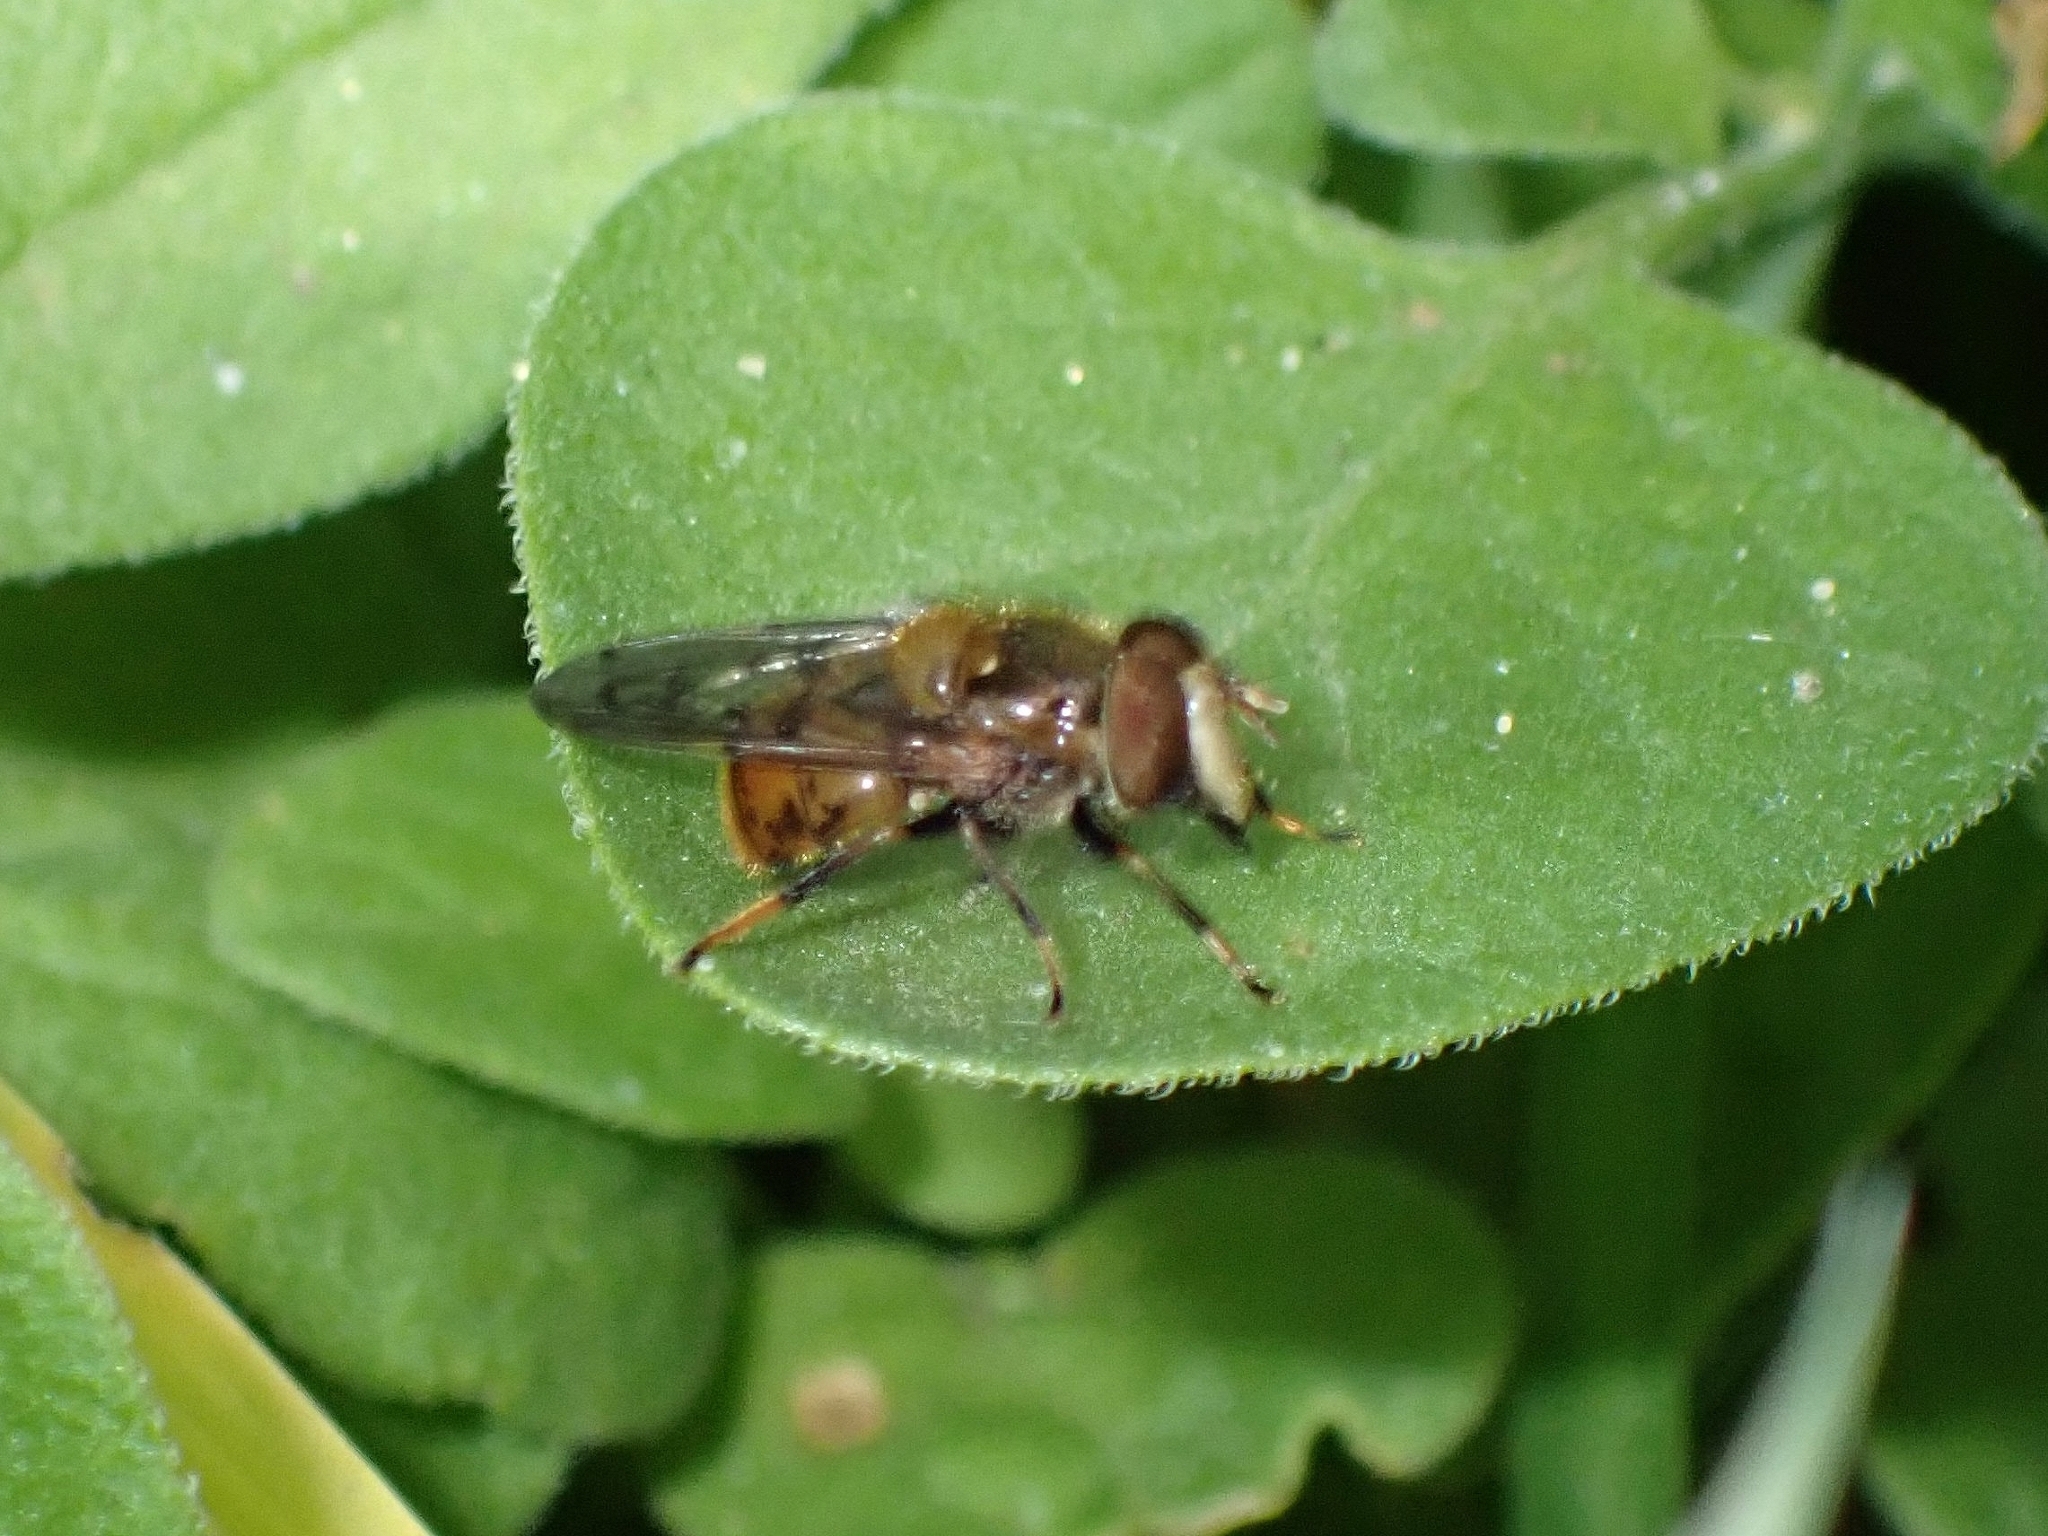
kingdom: Animalia
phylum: Arthropoda
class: Insecta
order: Diptera
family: Syrphidae
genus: Copestylum
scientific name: Copestylum melleum
